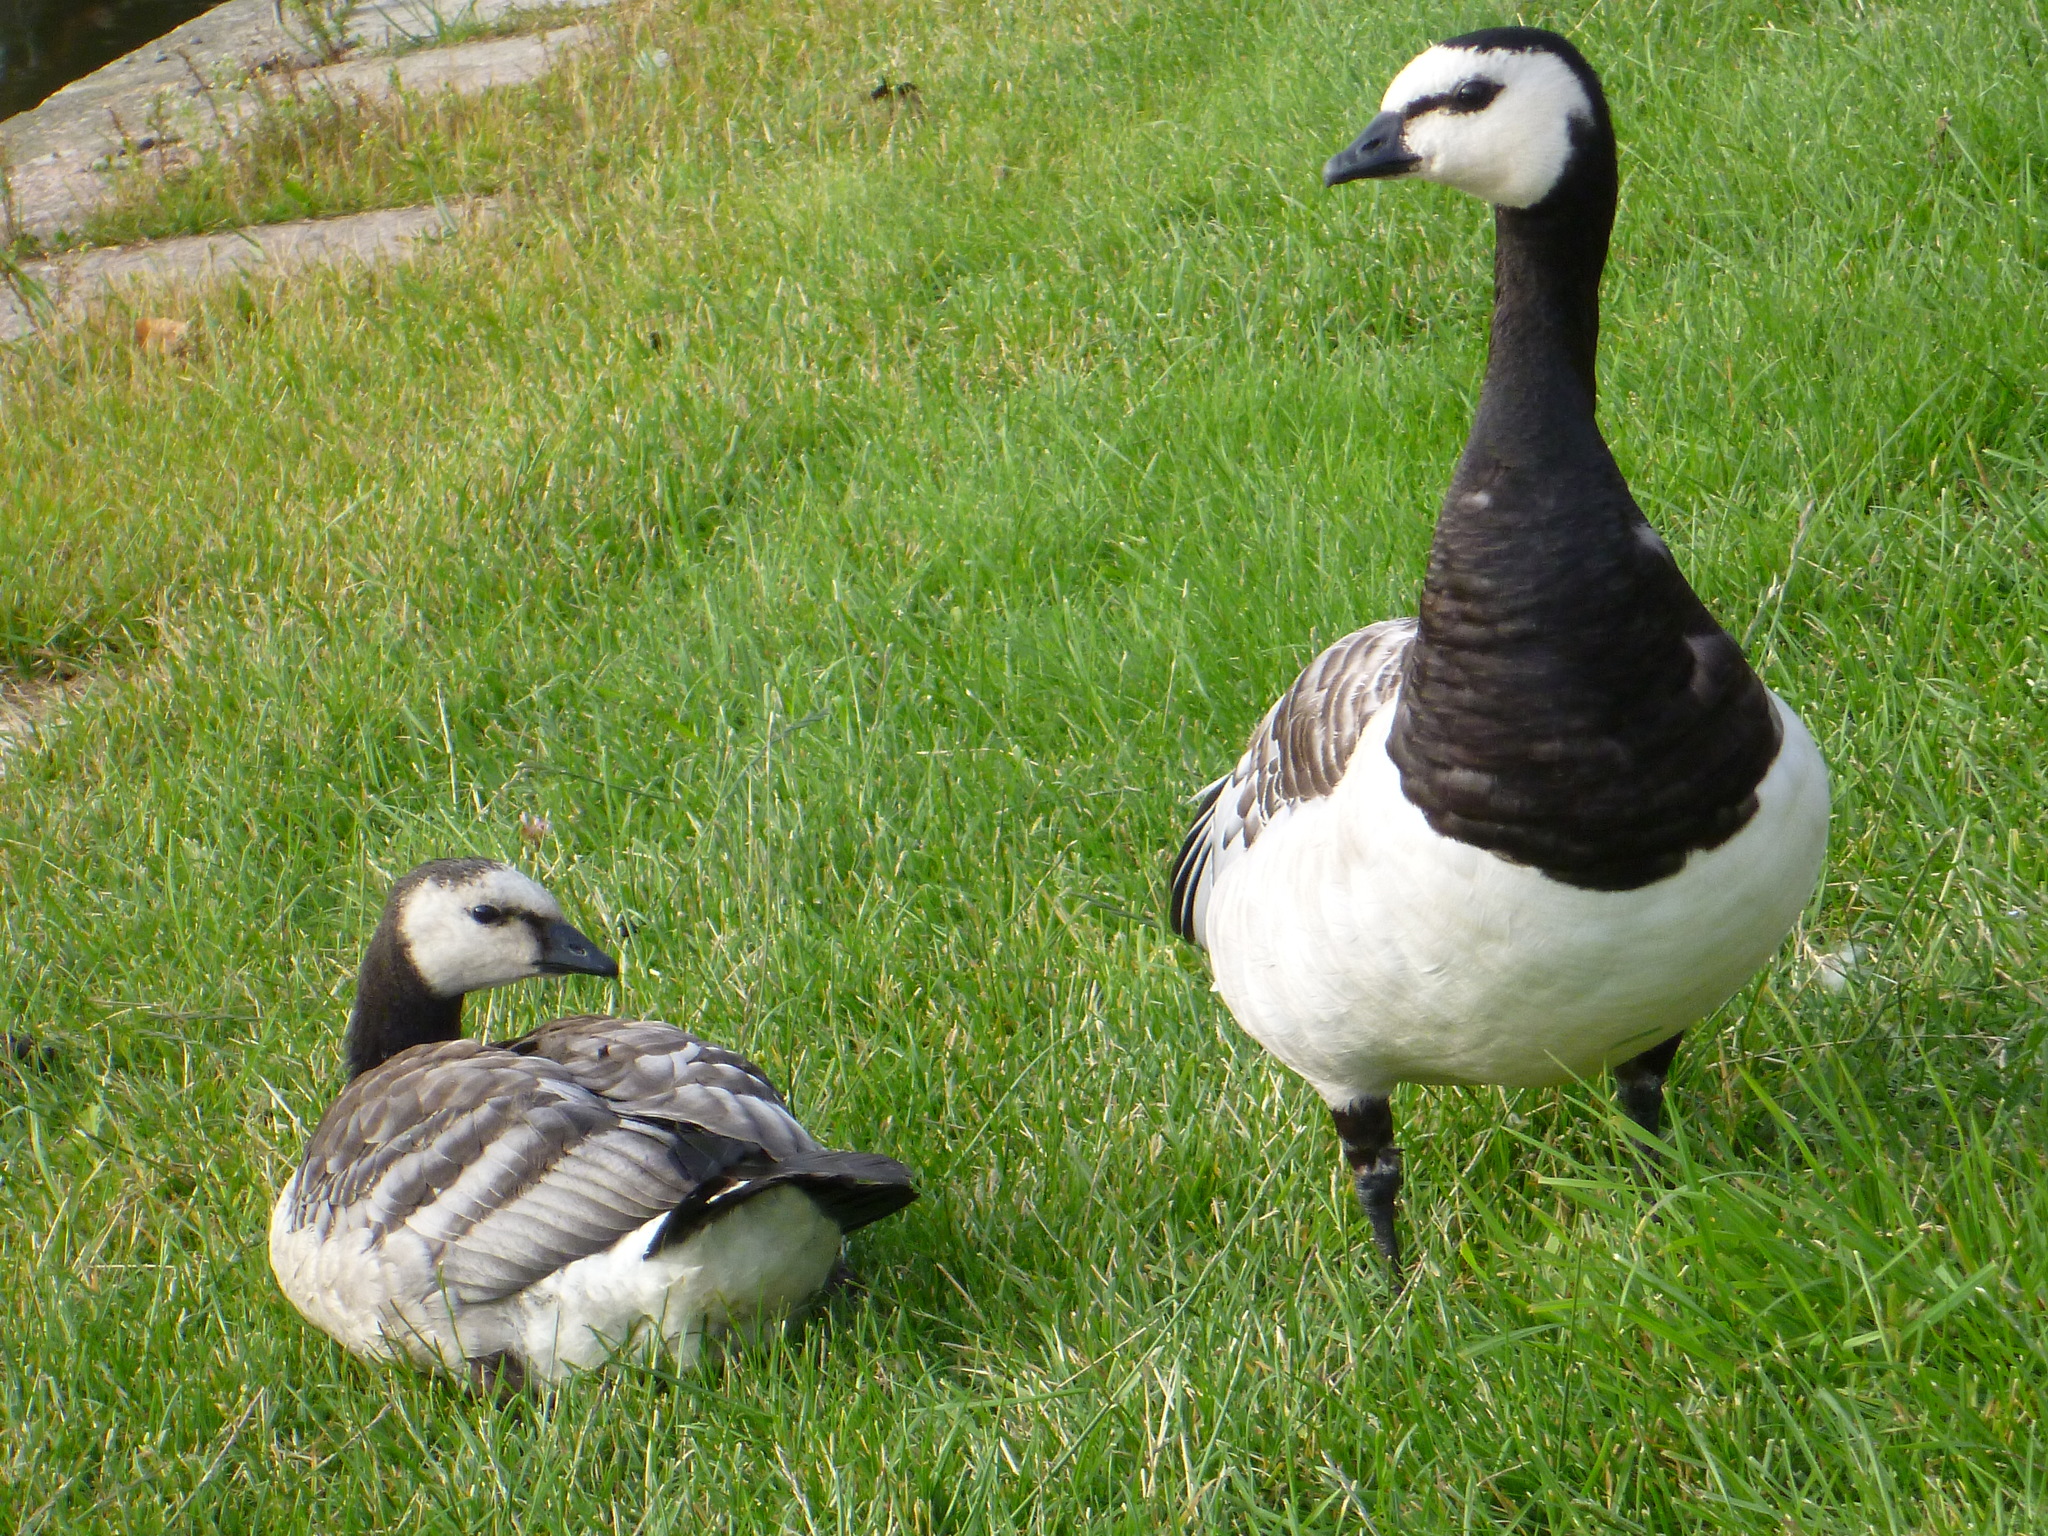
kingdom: Animalia
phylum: Chordata
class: Aves
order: Anseriformes
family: Anatidae
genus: Branta
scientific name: Branta leucopsis
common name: Barnacle goose
